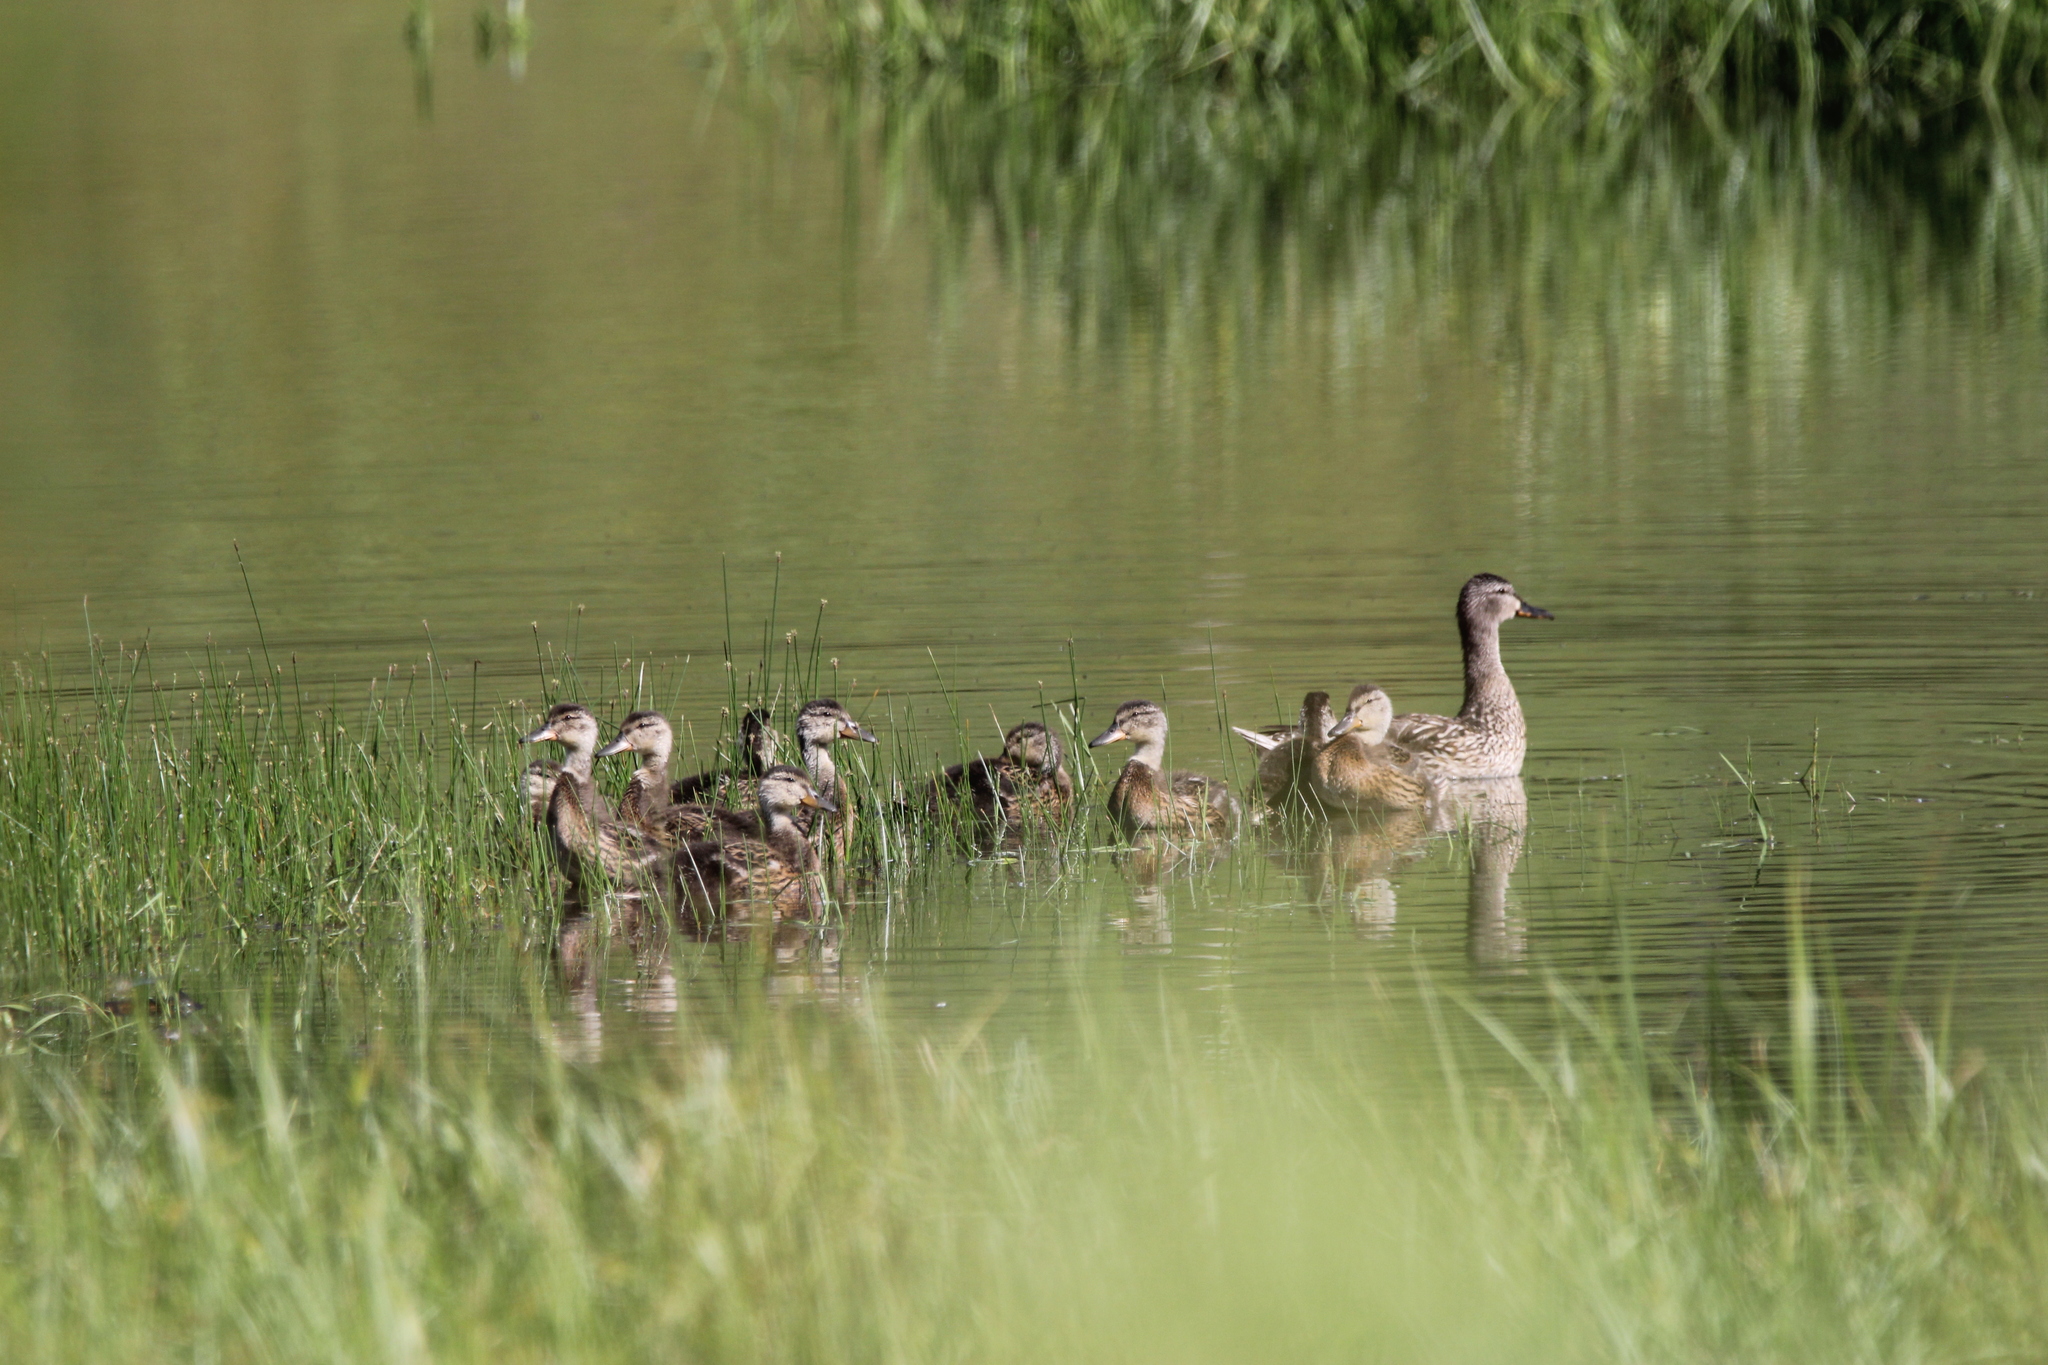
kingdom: Animalia
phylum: Chordata
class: Aves
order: Anseriformes
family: Anatidae
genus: Mareca
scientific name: Mareca strepera
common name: Gadwall
